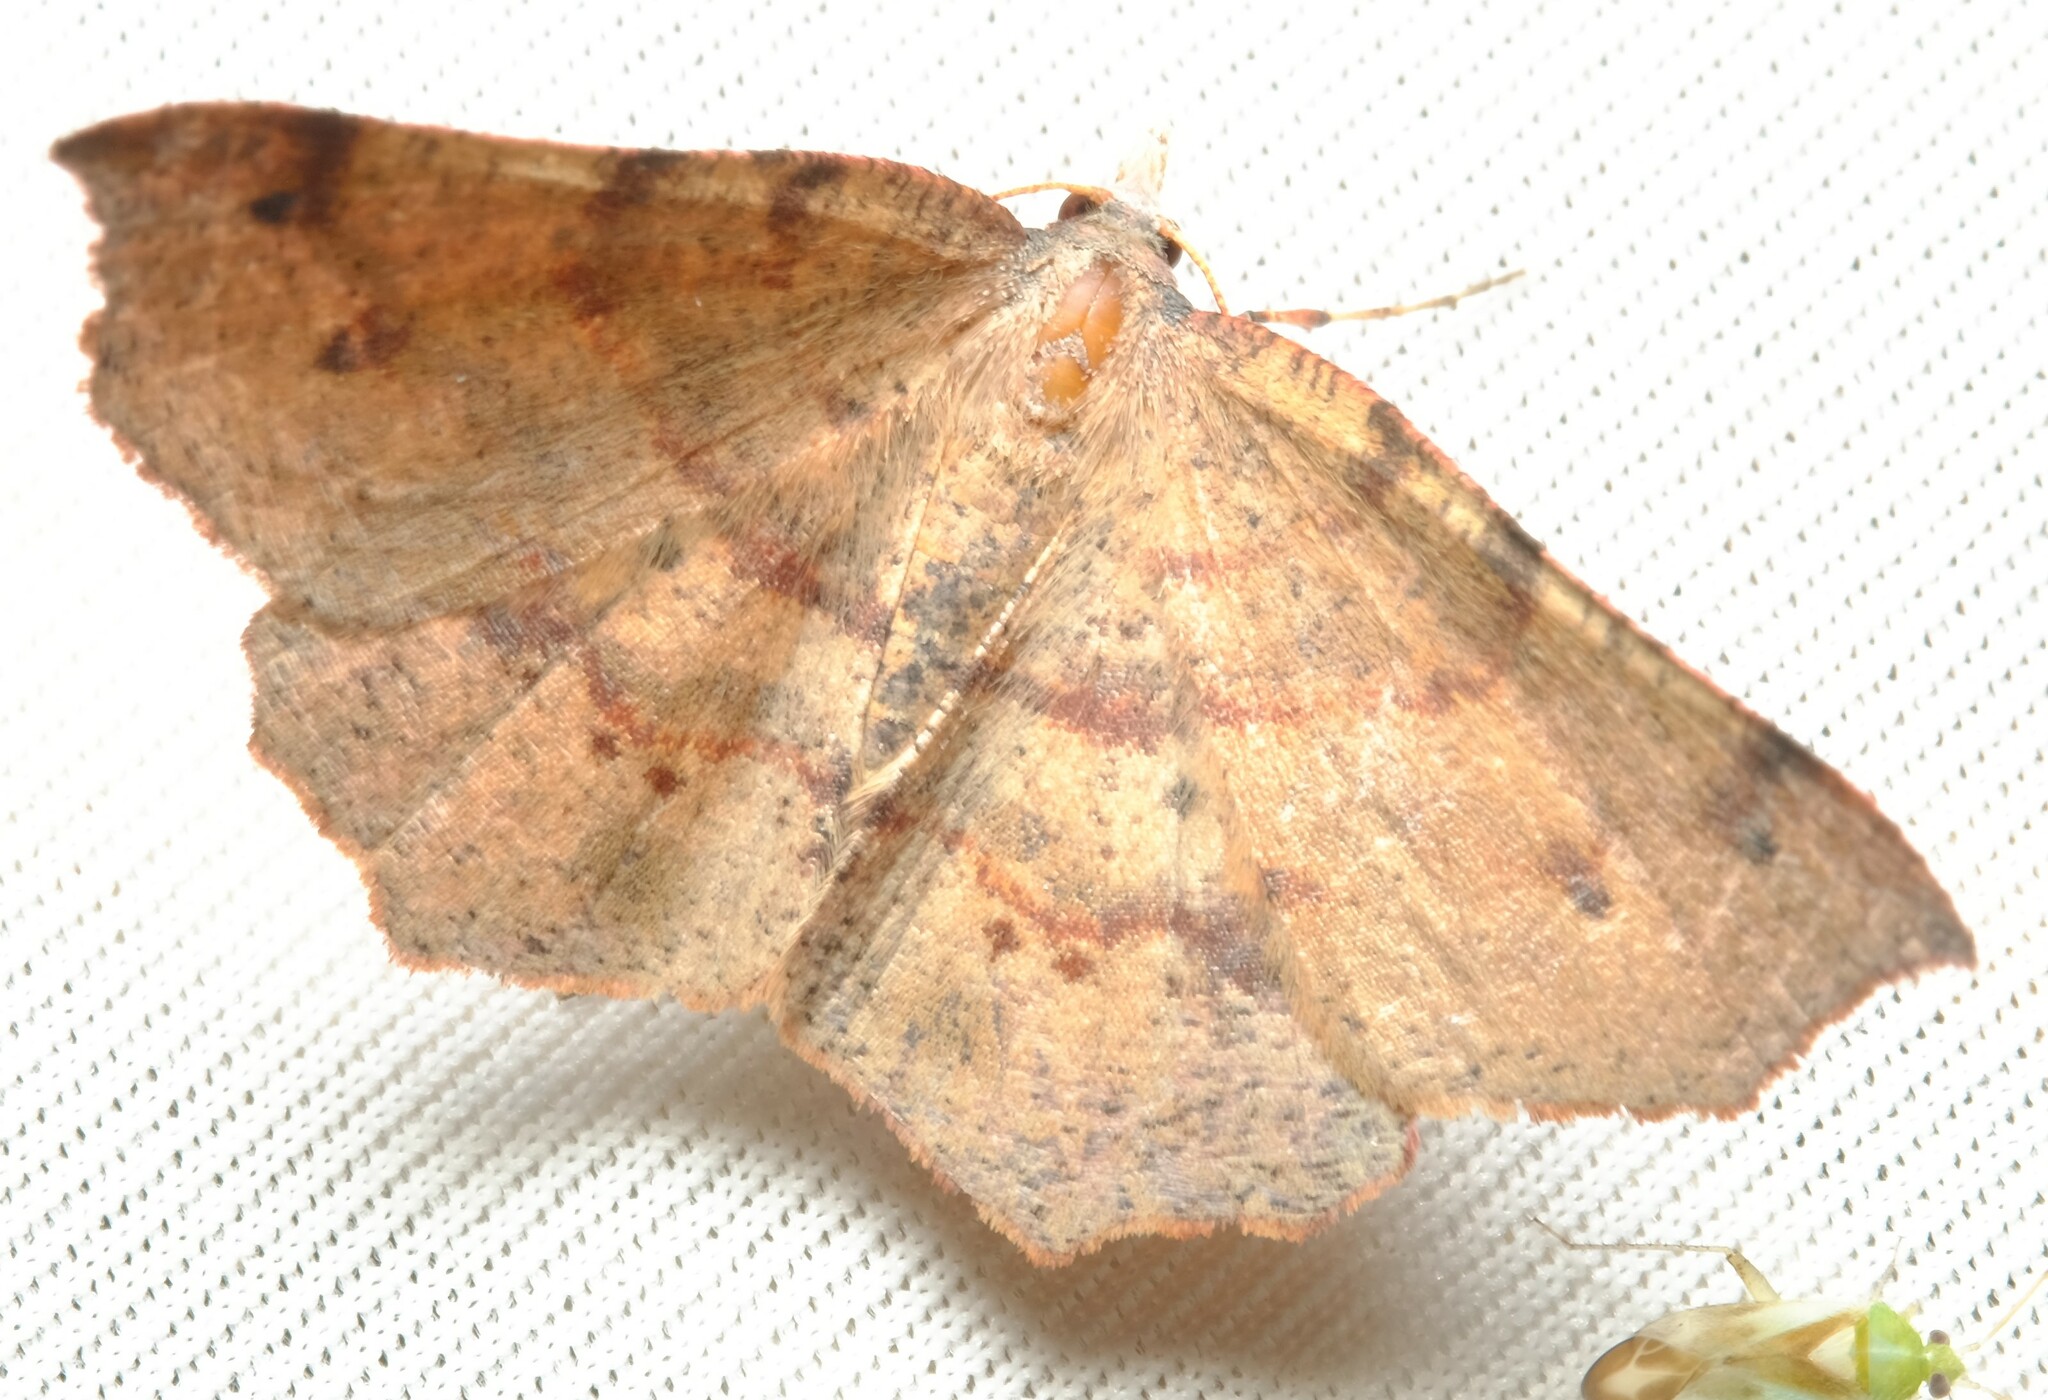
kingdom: Animalia
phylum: Arthropoda
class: Insecta
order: Lepidoptera
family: Geometridae
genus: Rhinodia
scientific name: Rhinodia rostraria
